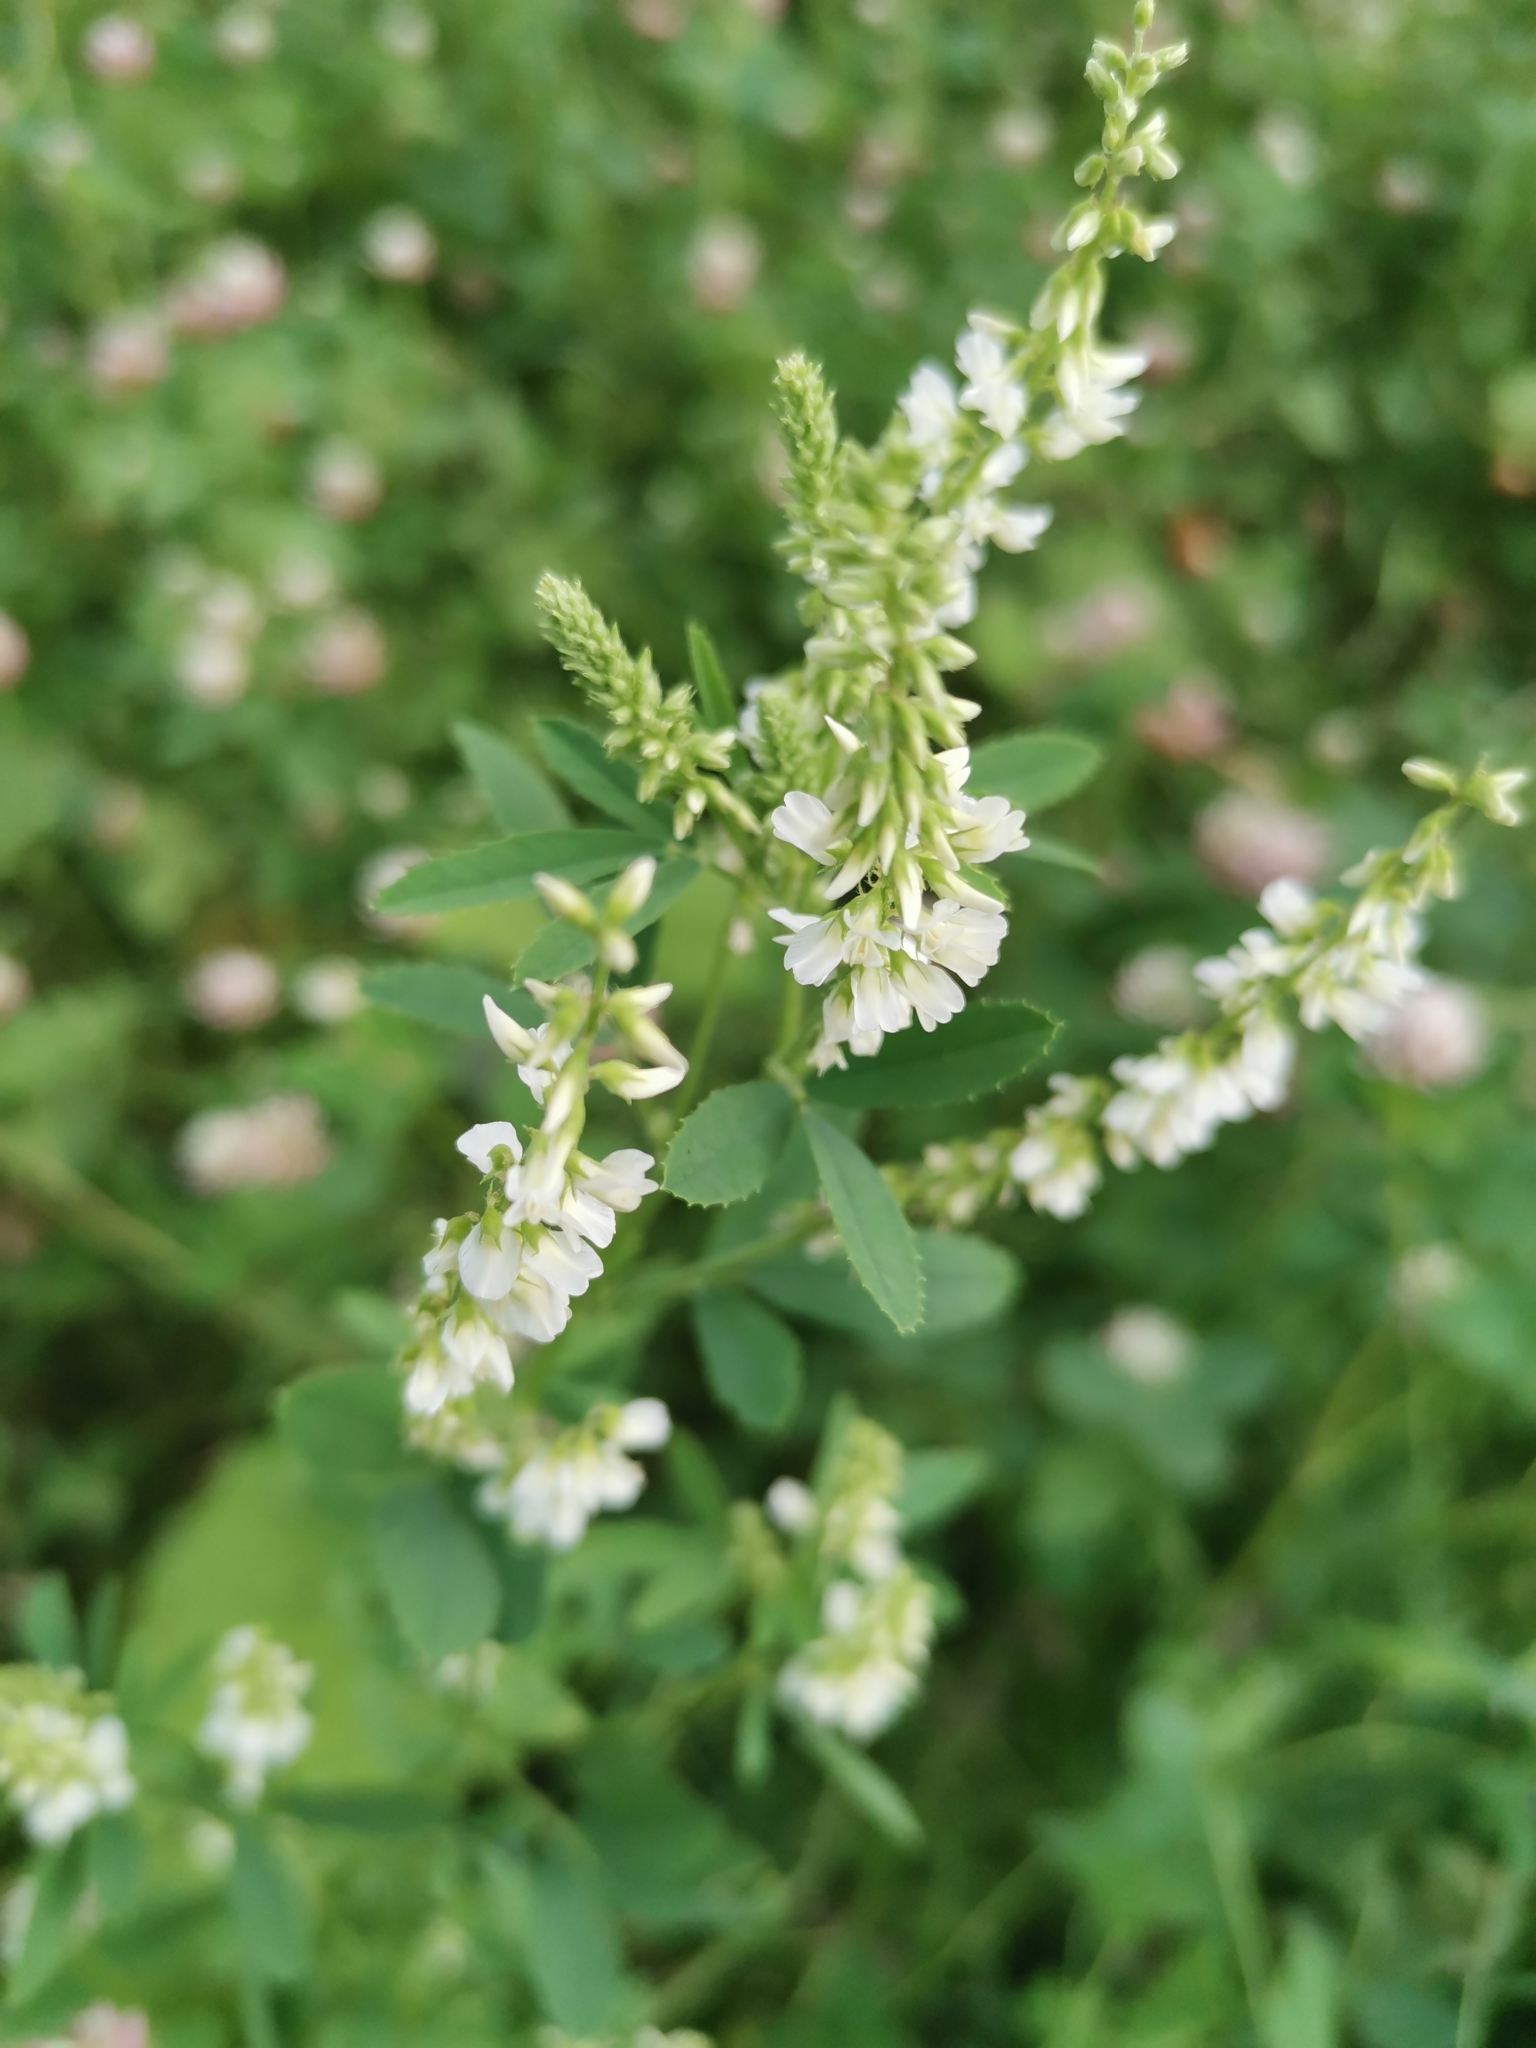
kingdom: Plantae
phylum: Tracheophyta
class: Magnoliopsida
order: Fabales
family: Fabaceae
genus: Melilotus
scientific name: Melilotus albus
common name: White melilot
